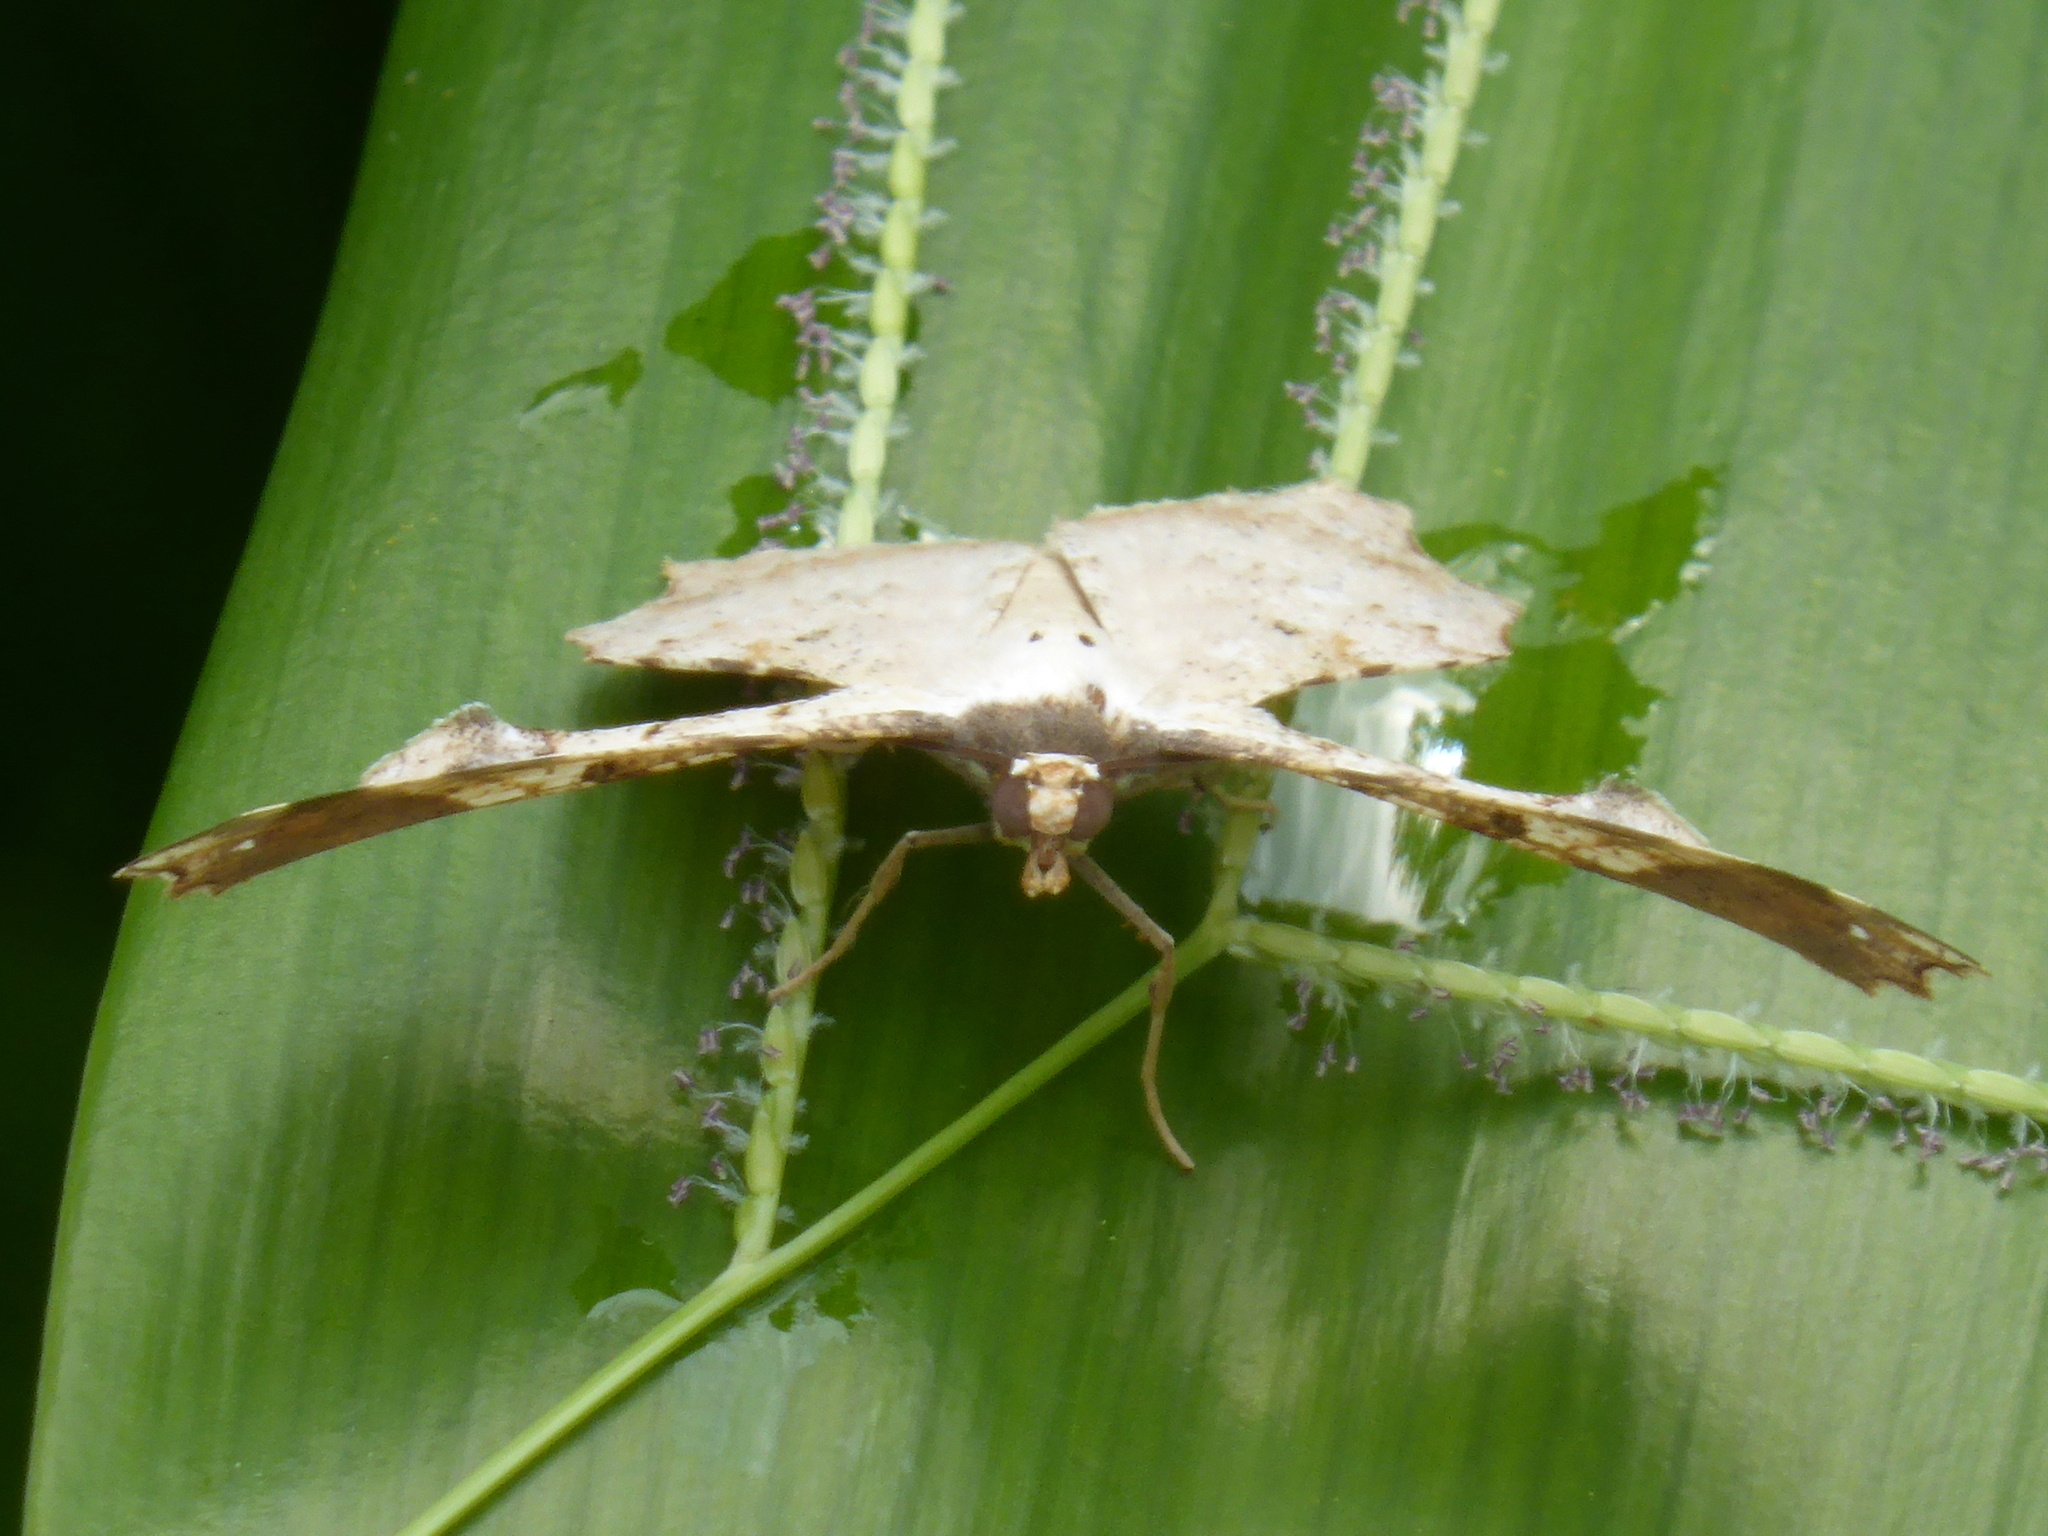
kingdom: Animalia
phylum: Arthropoda
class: Insecta
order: Lepidoptera
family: Geometridae
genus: Xylinophylla
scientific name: Xylinophylla hypocausta
